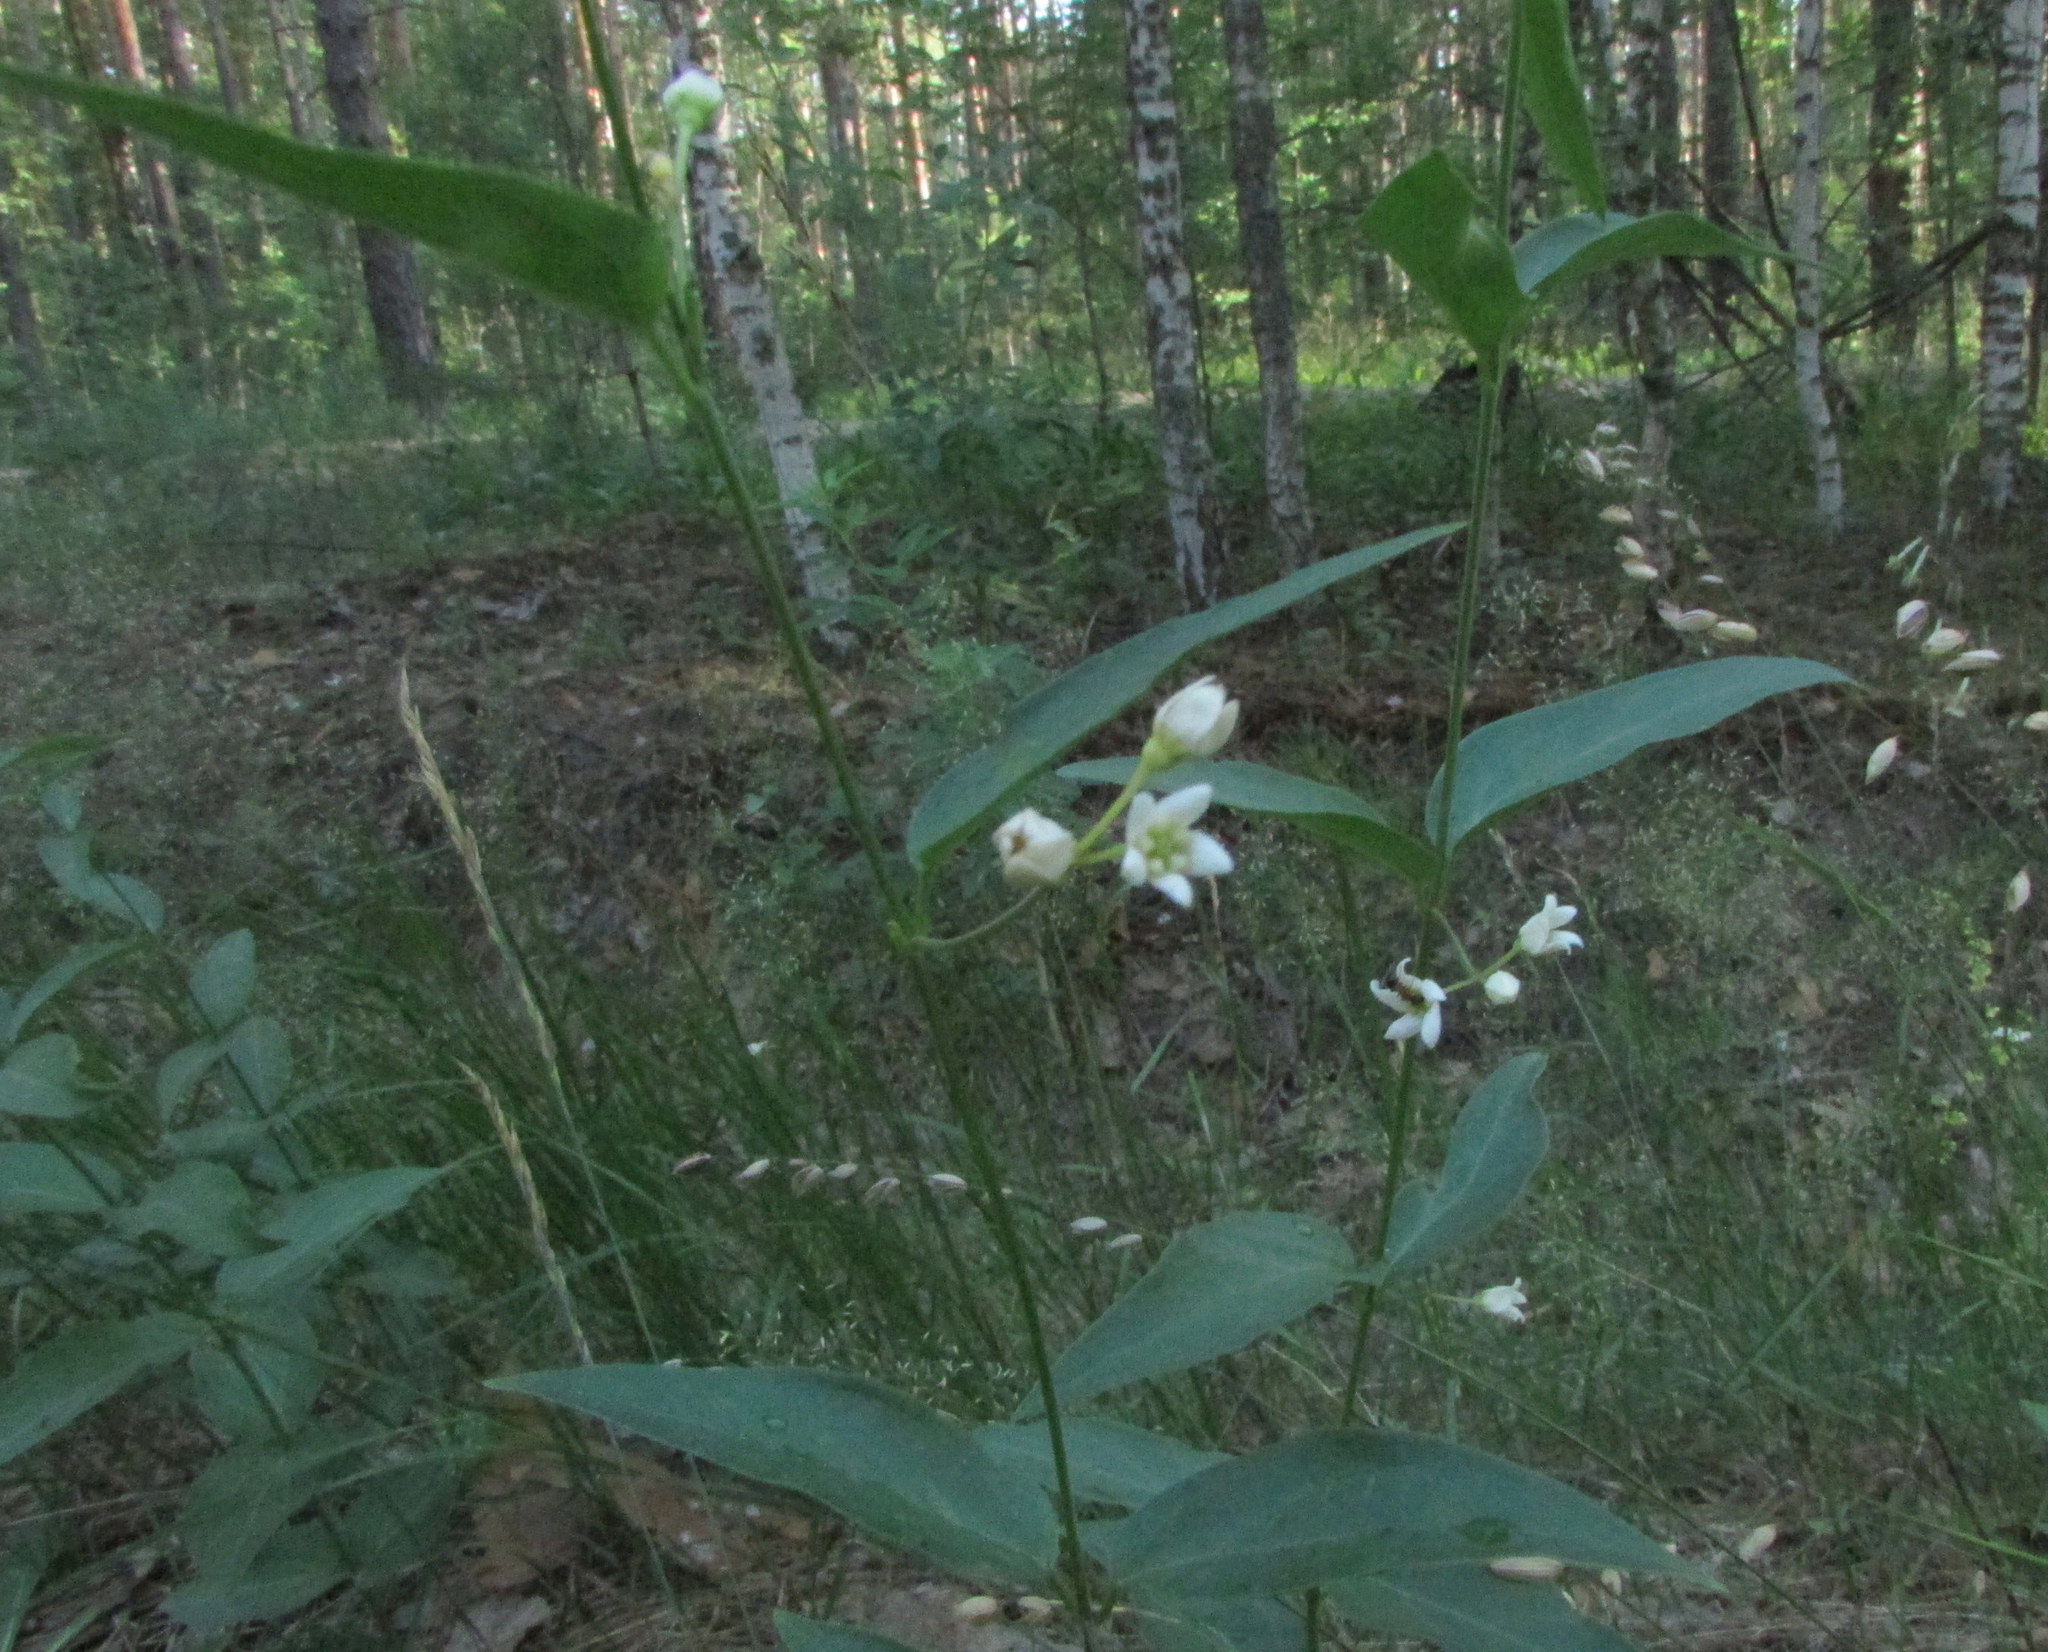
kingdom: Plantae
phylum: Tracheophyta
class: Magnoliopsida
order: Gentianales
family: Apocynaceae
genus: Vincetoxicum
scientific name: Vincetoxicum hirundinaria
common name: White swallowwort
